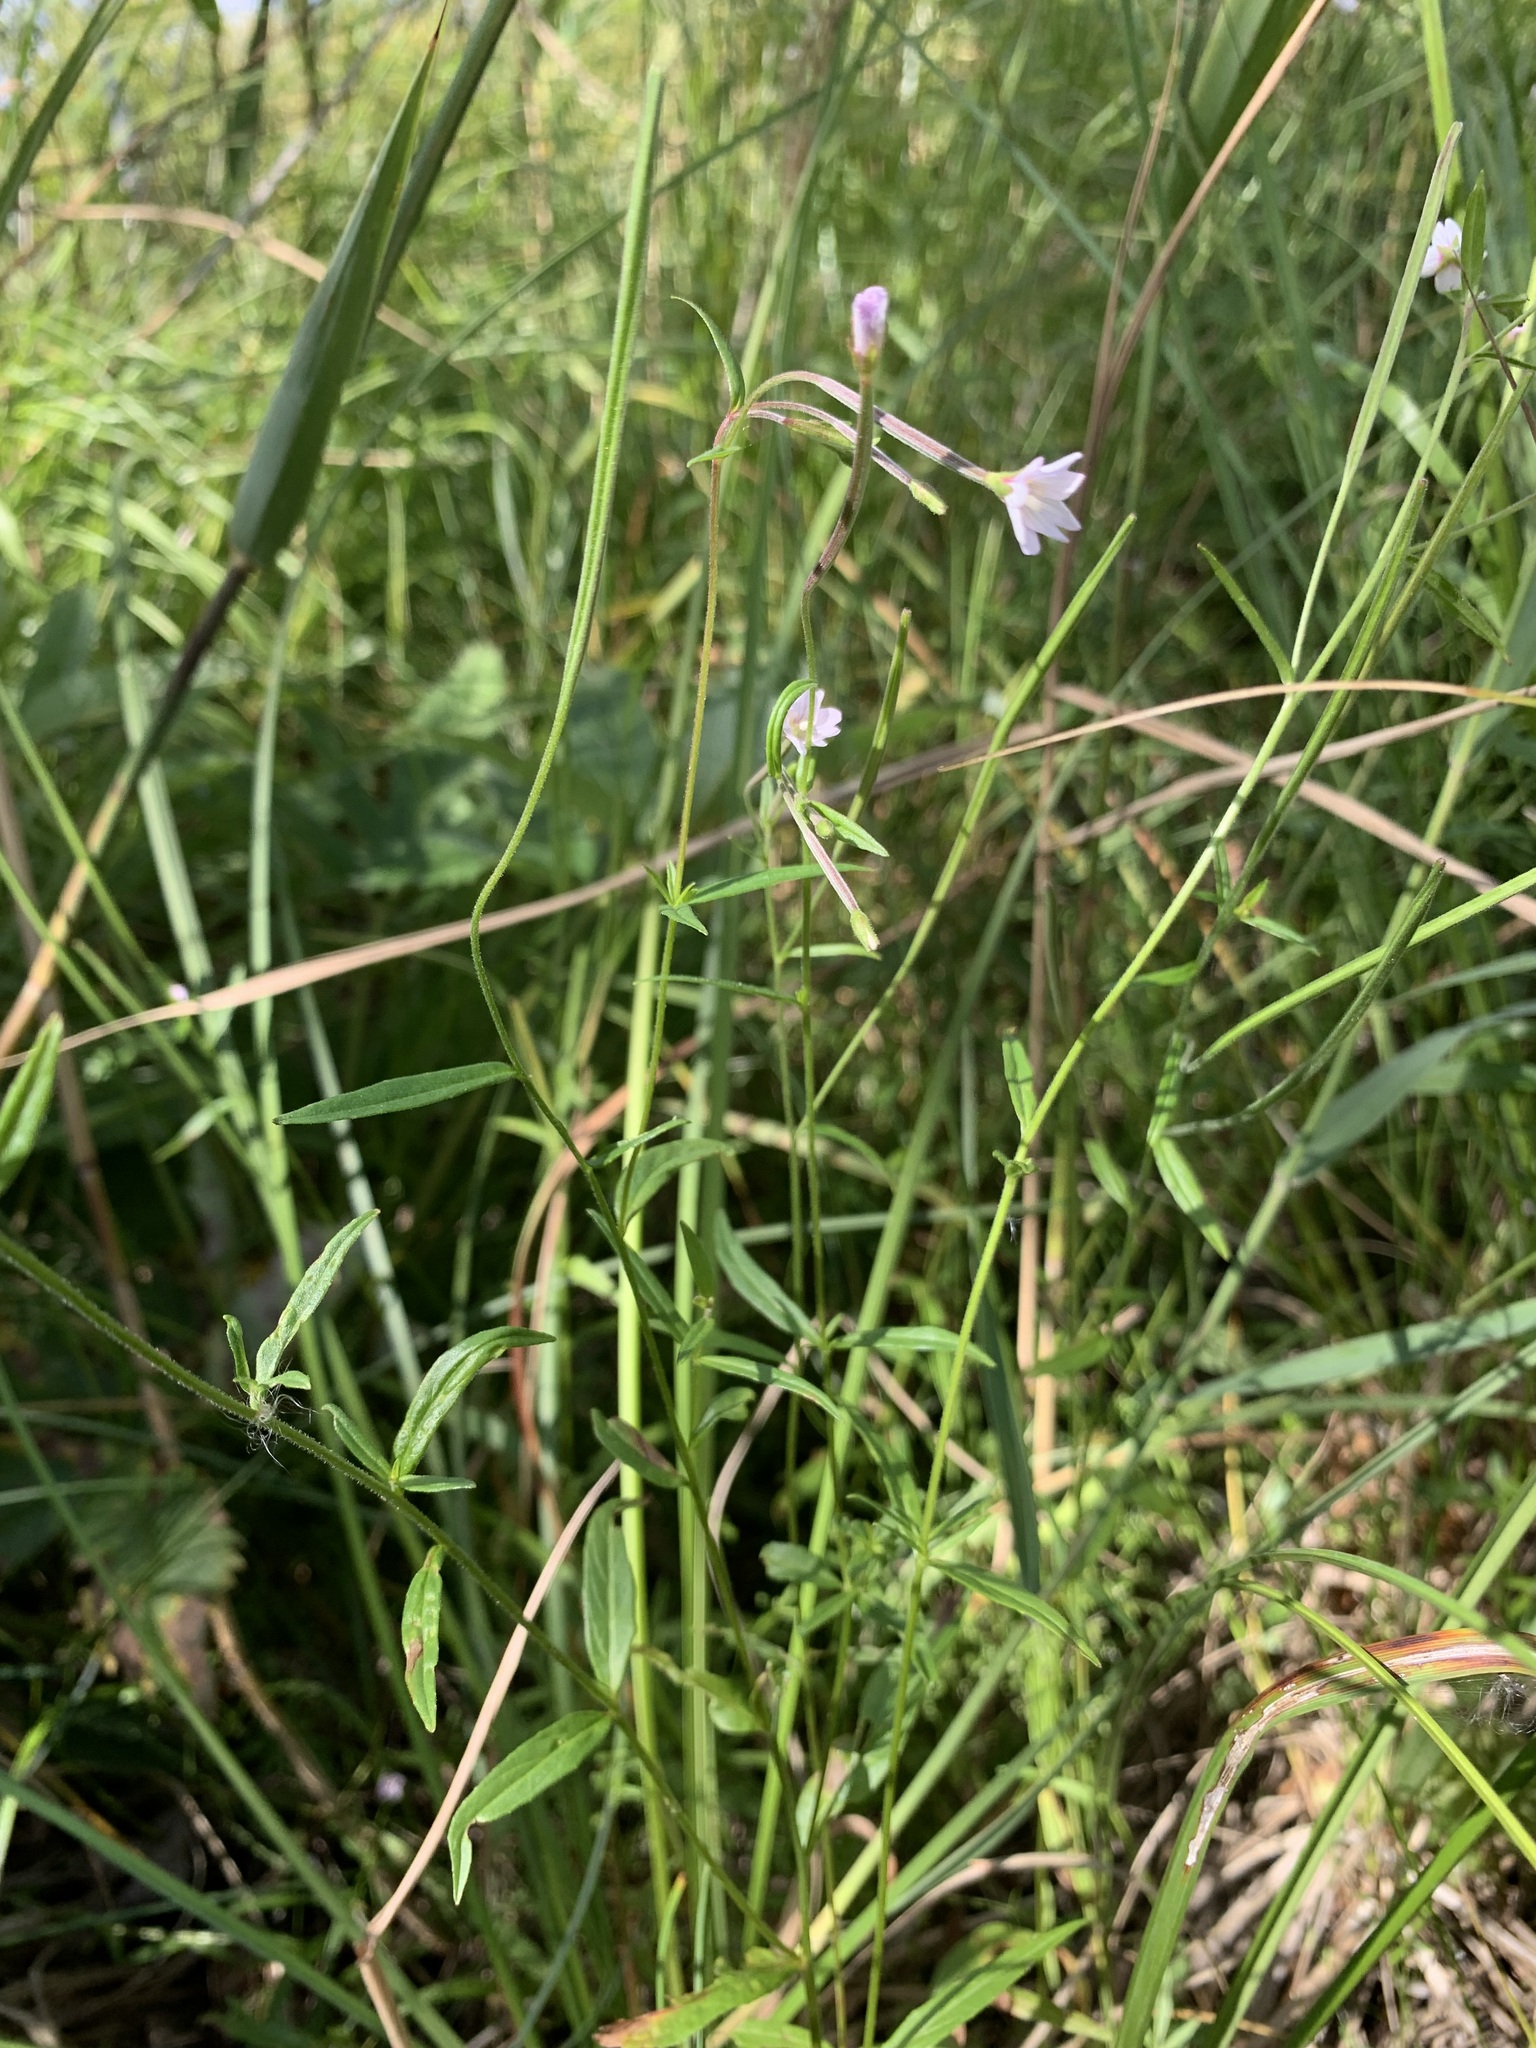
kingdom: Plantae
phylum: Tracheophyta
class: Magnoliopsida
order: Myrtales
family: Onagraceae
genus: Epilobium
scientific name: Epilobium palustre
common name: Marsh willowherb
